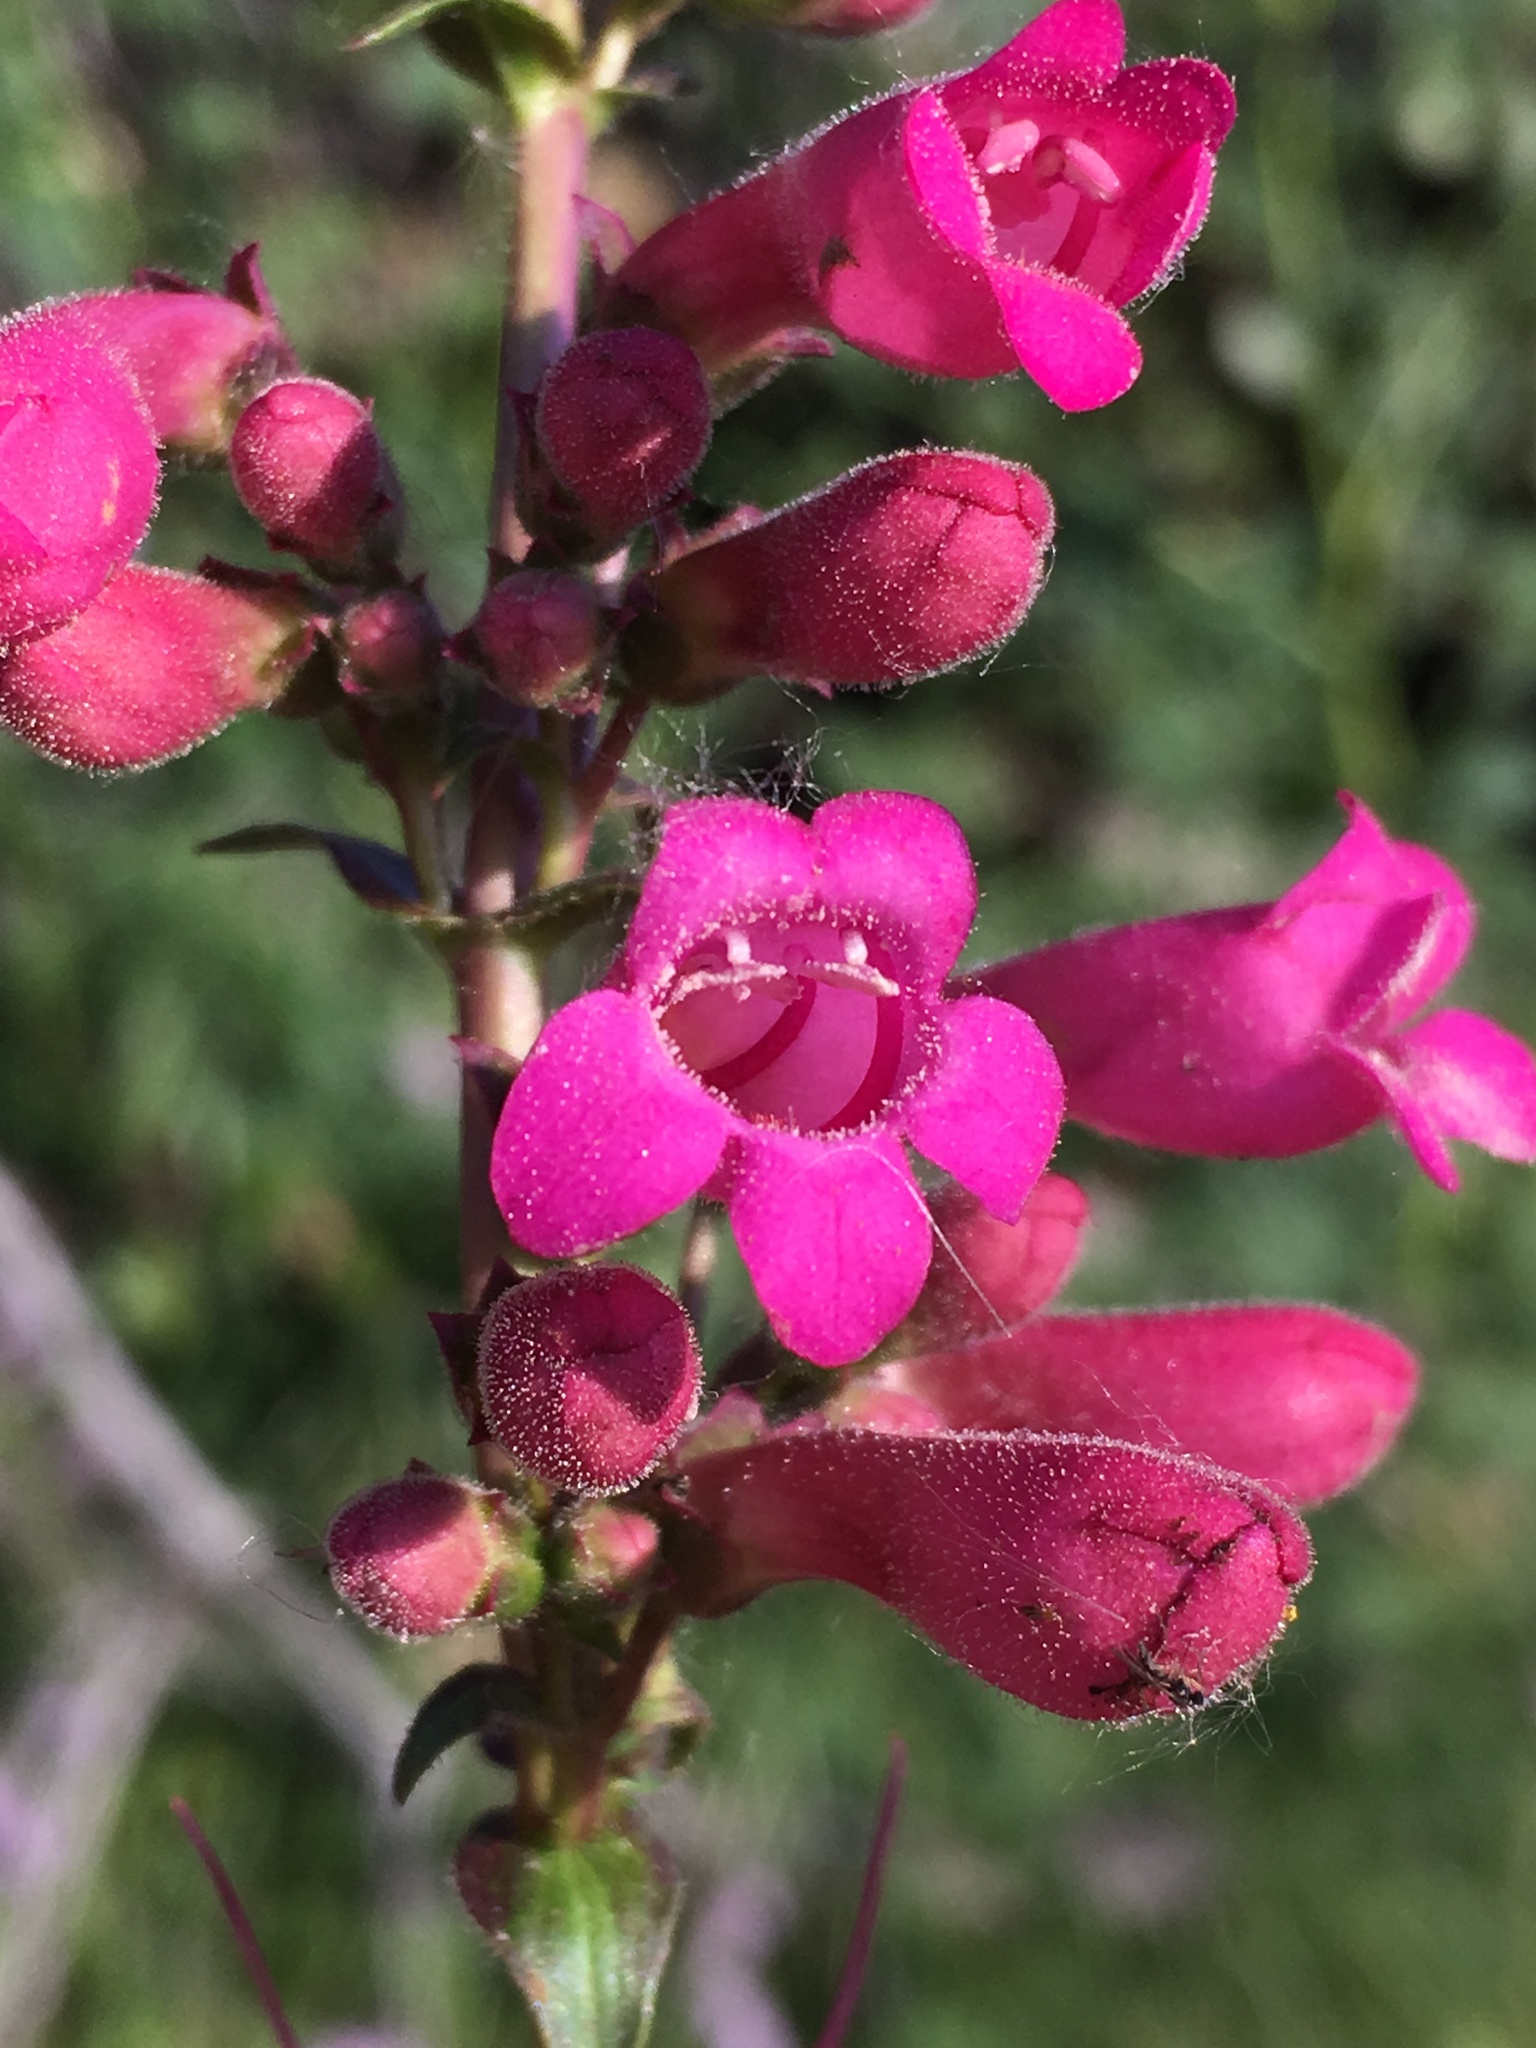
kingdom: Plantae
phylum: Tracheophyta
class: Magnoliopsida
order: Lamiales
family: Plantaginaceae
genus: Penstemon
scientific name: Penstemon clevelandii
